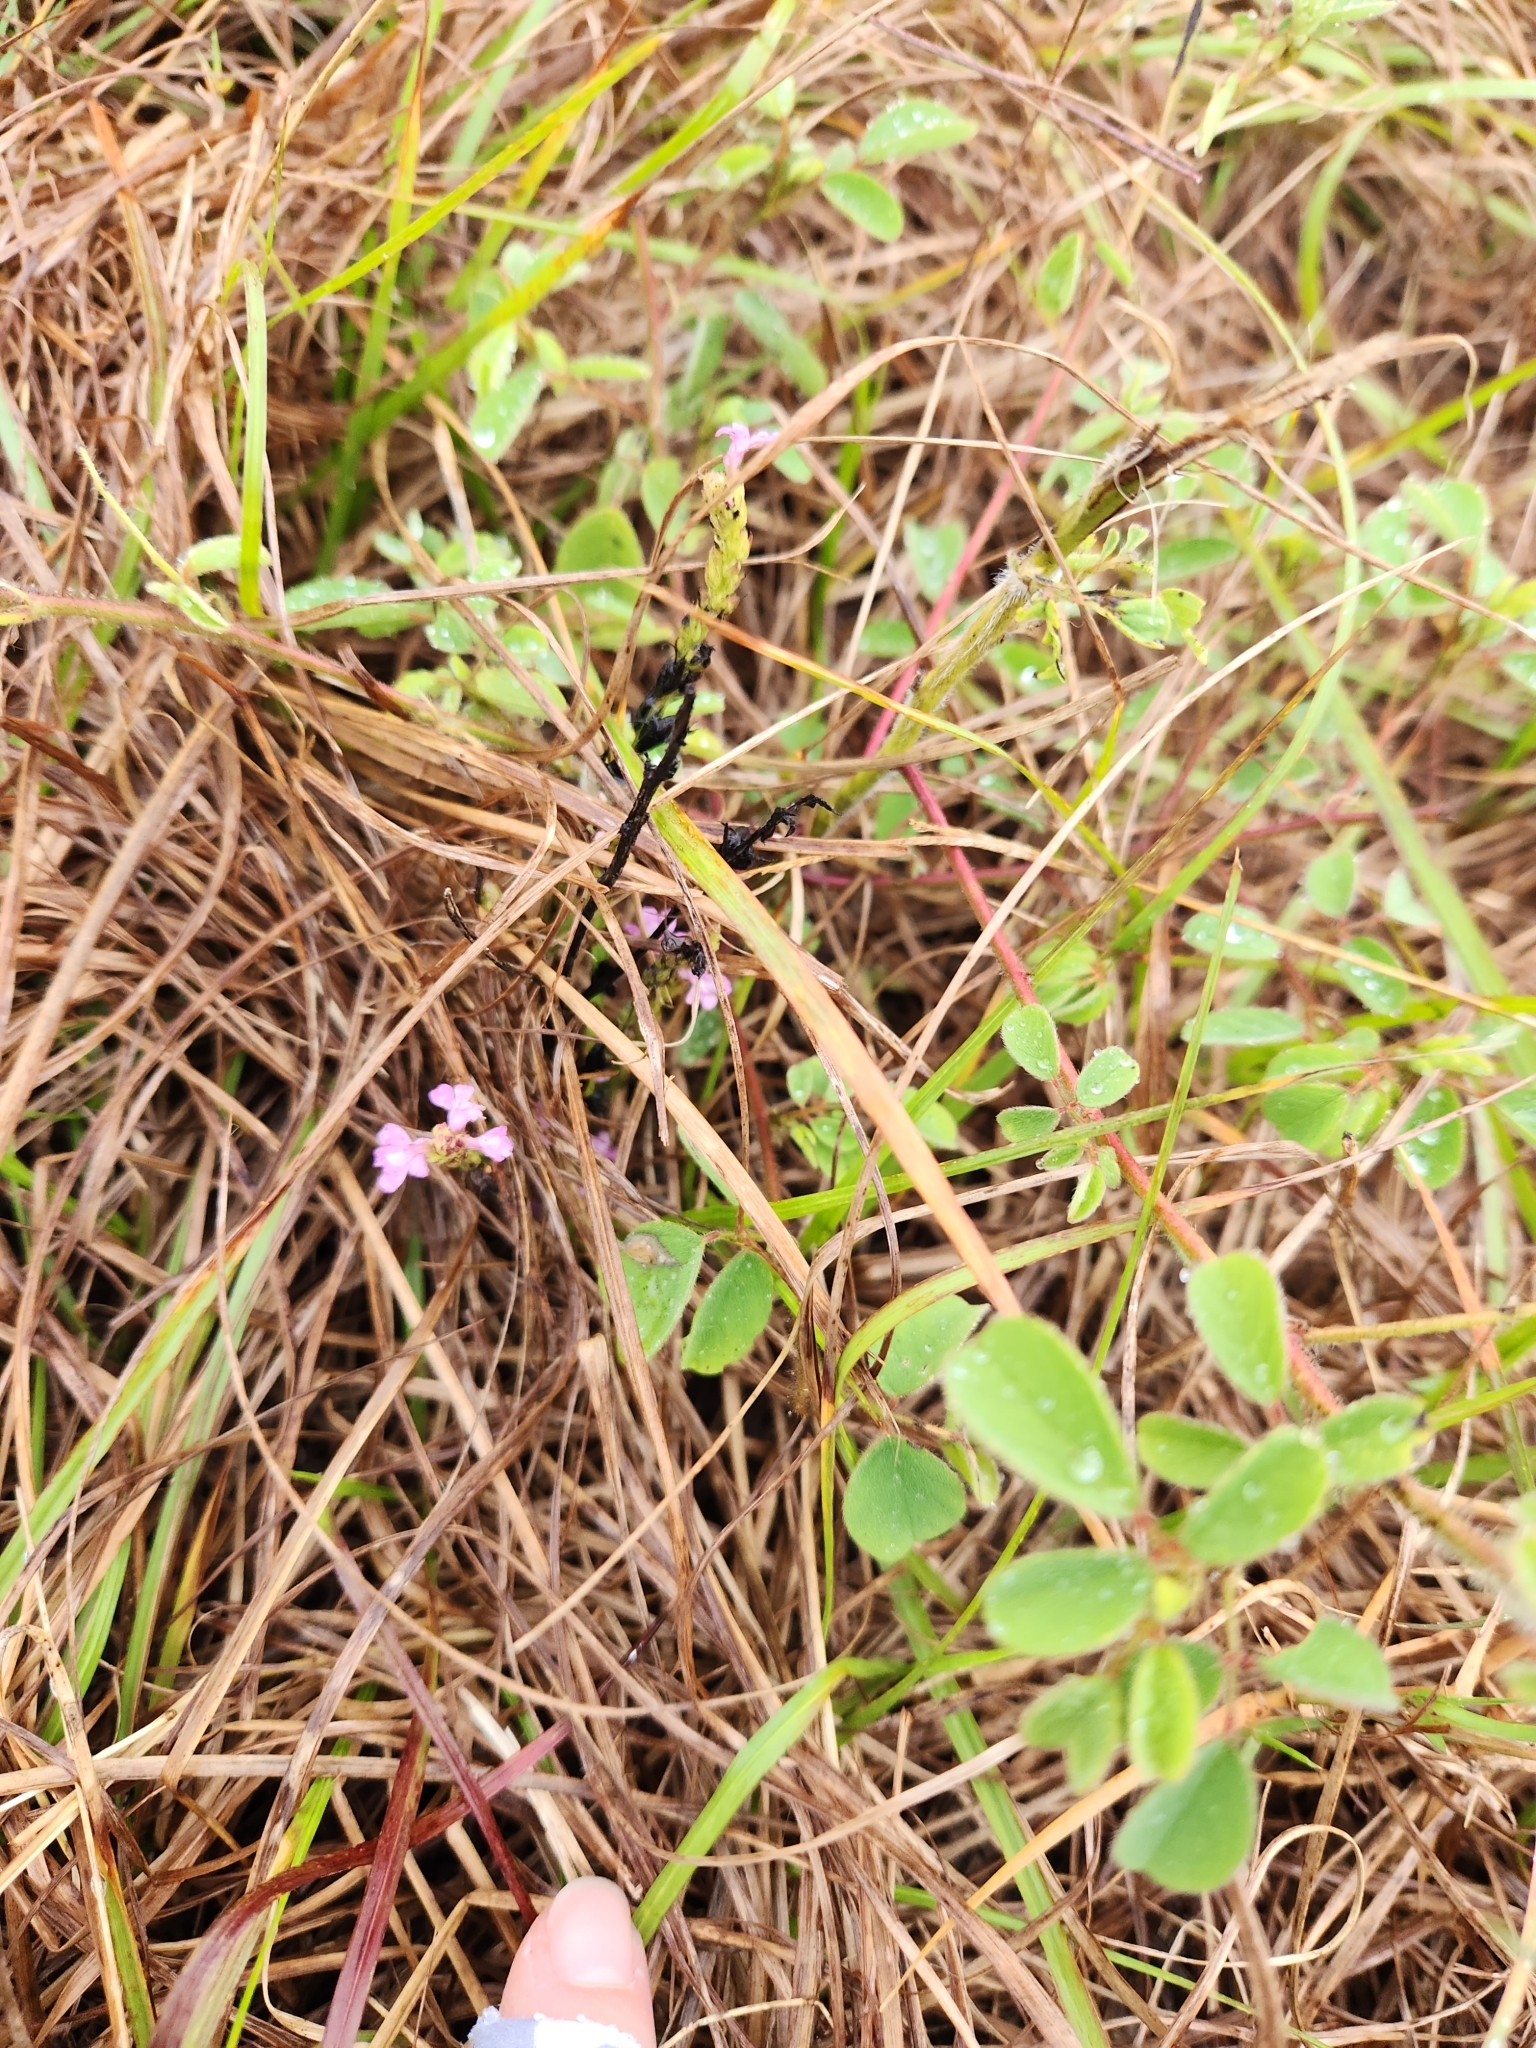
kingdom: Plantae
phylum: Tracheophyta
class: Magnoliopsida
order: Lamiales
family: Orobanchaceae
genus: Striga
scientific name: Striga gesnerioides
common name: Cowpea witchweed
